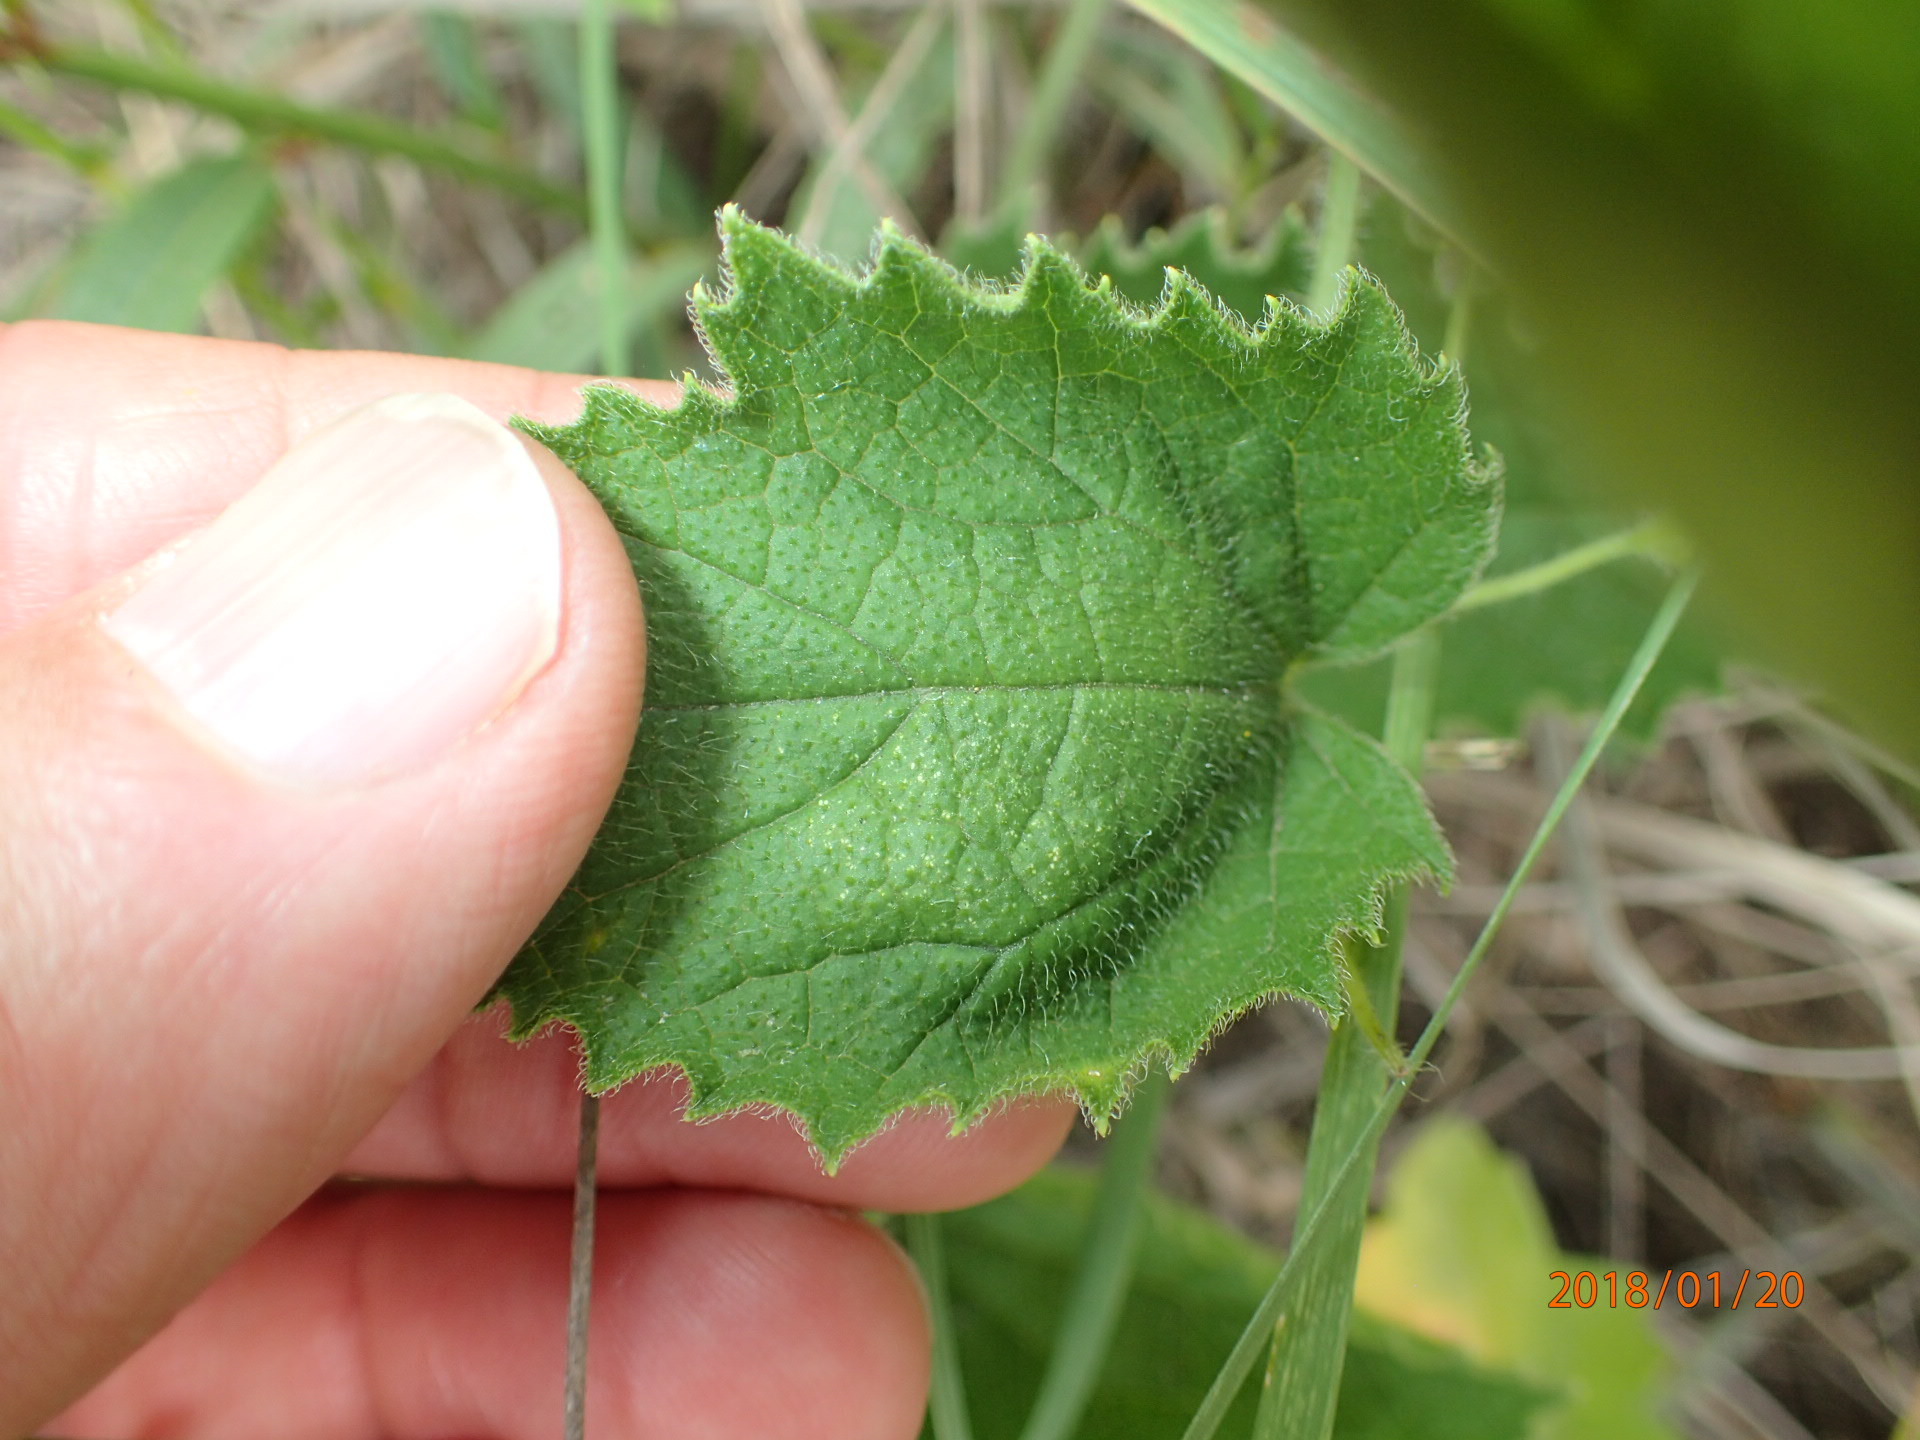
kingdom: Plantae
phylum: Tracheophyta
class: Magnoliopsida
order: Cucurbitales
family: Cucurbitaceae
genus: Cucumis
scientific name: Cucumis hirsutus
